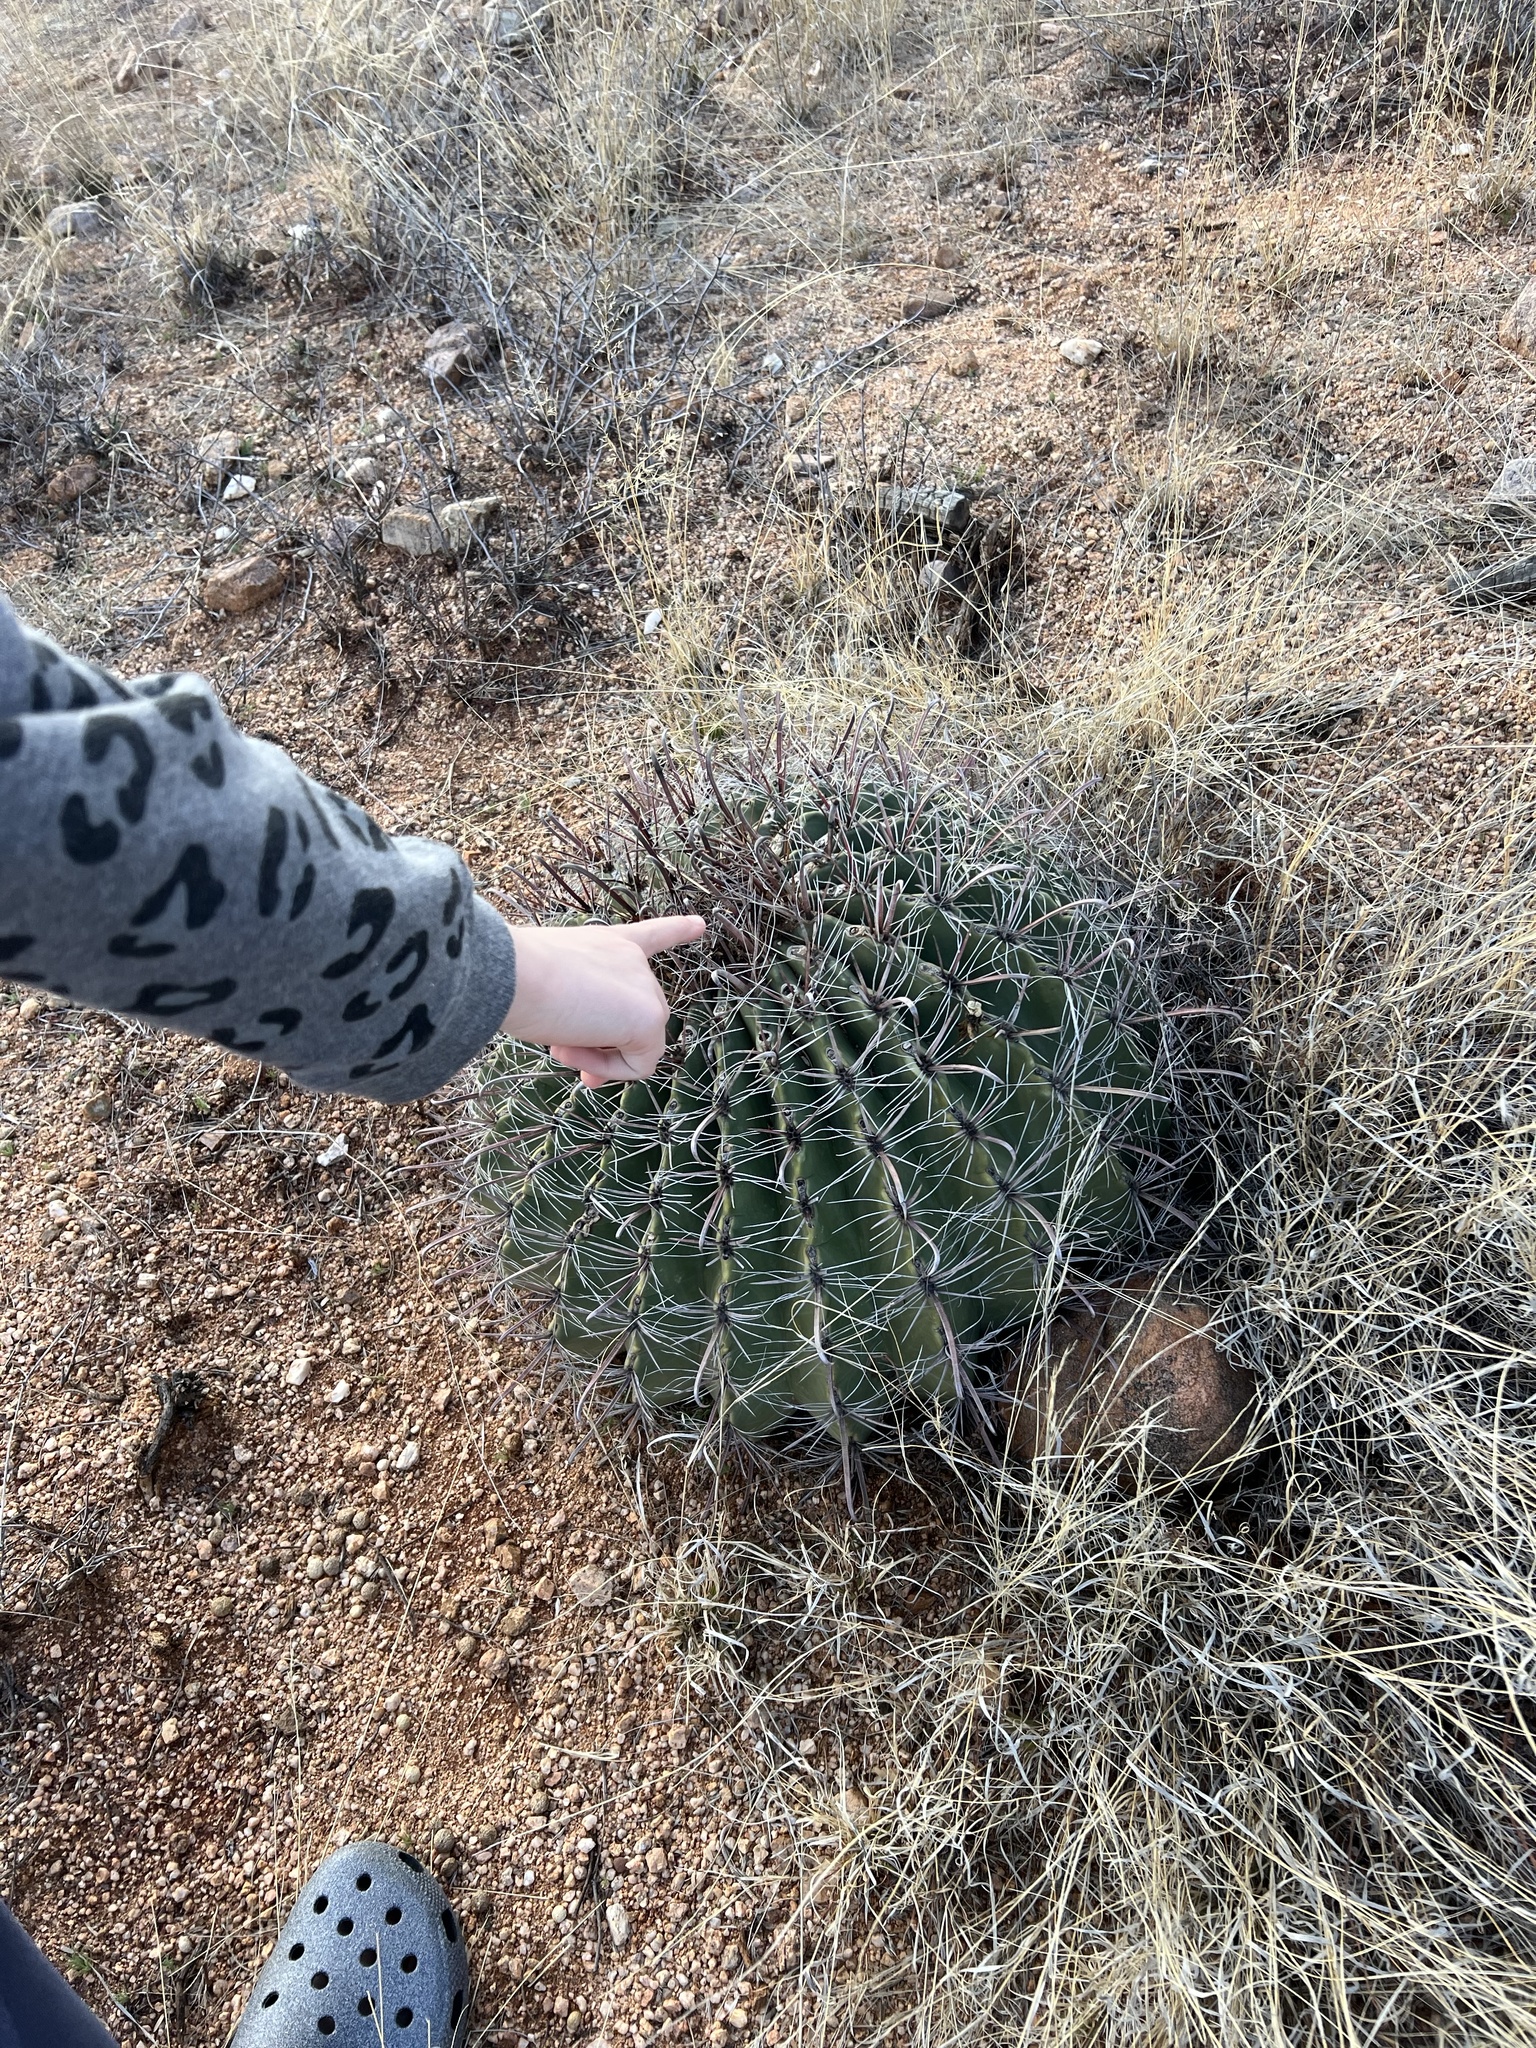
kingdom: Plantae
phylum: Tracheophyta
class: Magnoliopsida
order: Caryophyllales
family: Cactaceae
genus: Ferocactus
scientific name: Ferocactus wislizeni
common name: Candy barrel cactus
